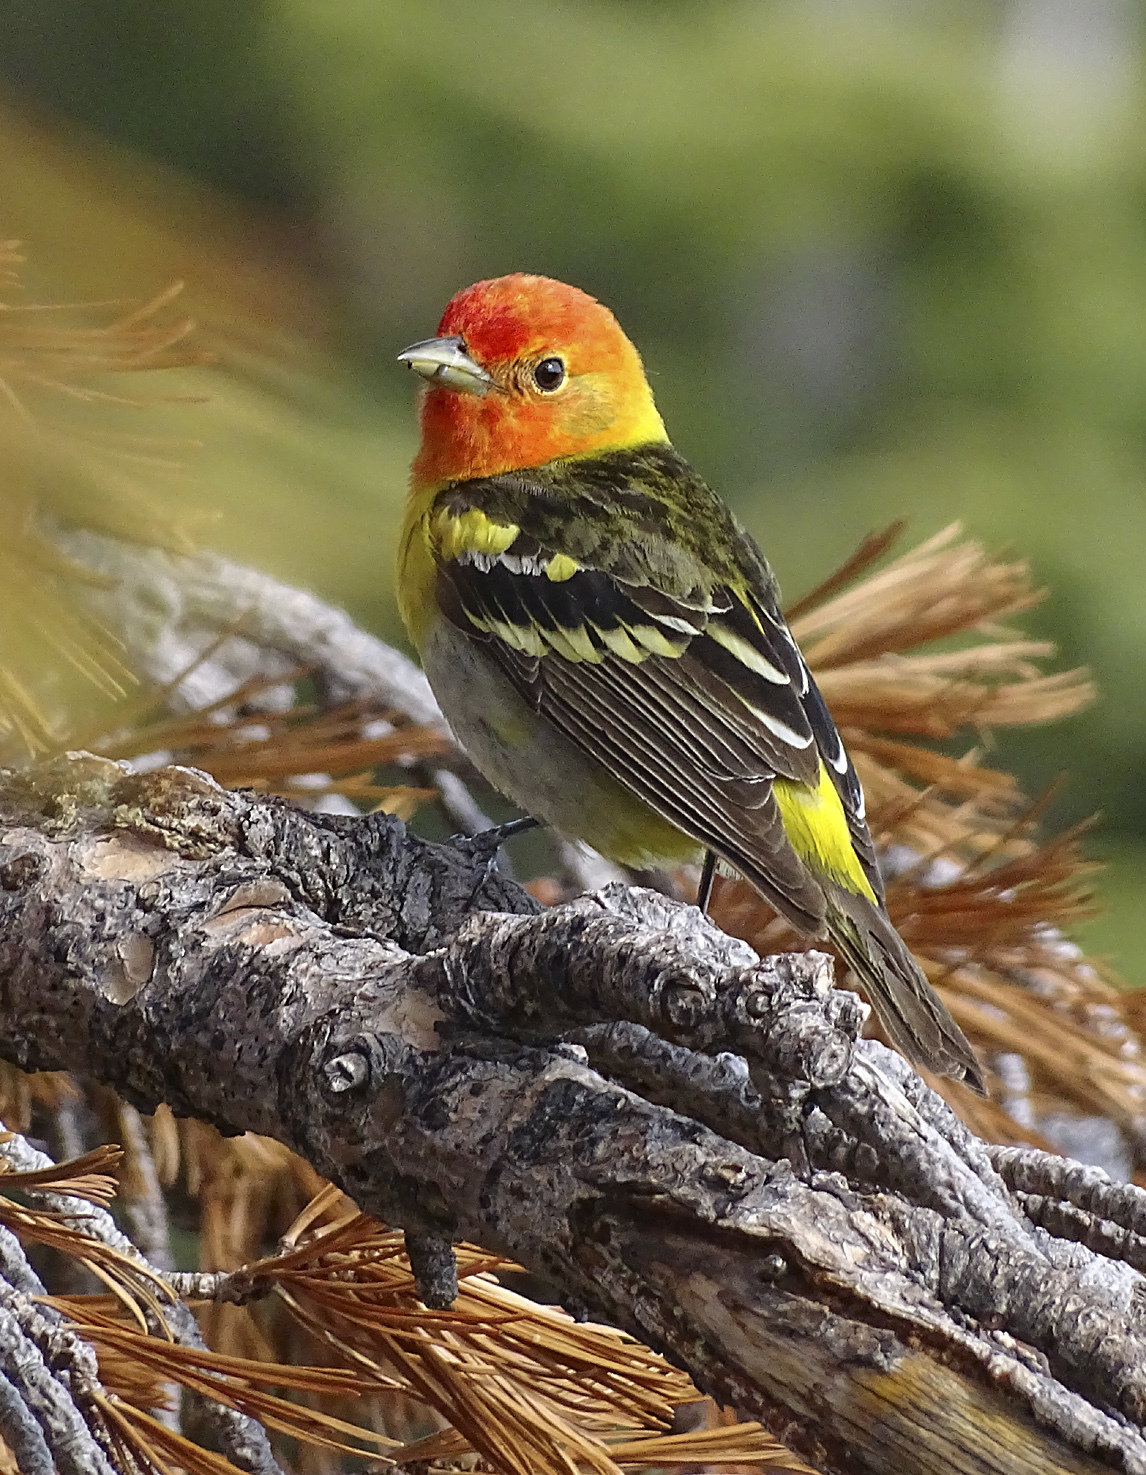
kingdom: Animalia
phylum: Chordata
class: Aves
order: Passeriformes
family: Cardinalidae
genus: Piranga
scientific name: Piranga ludoviciana
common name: Western tanager
